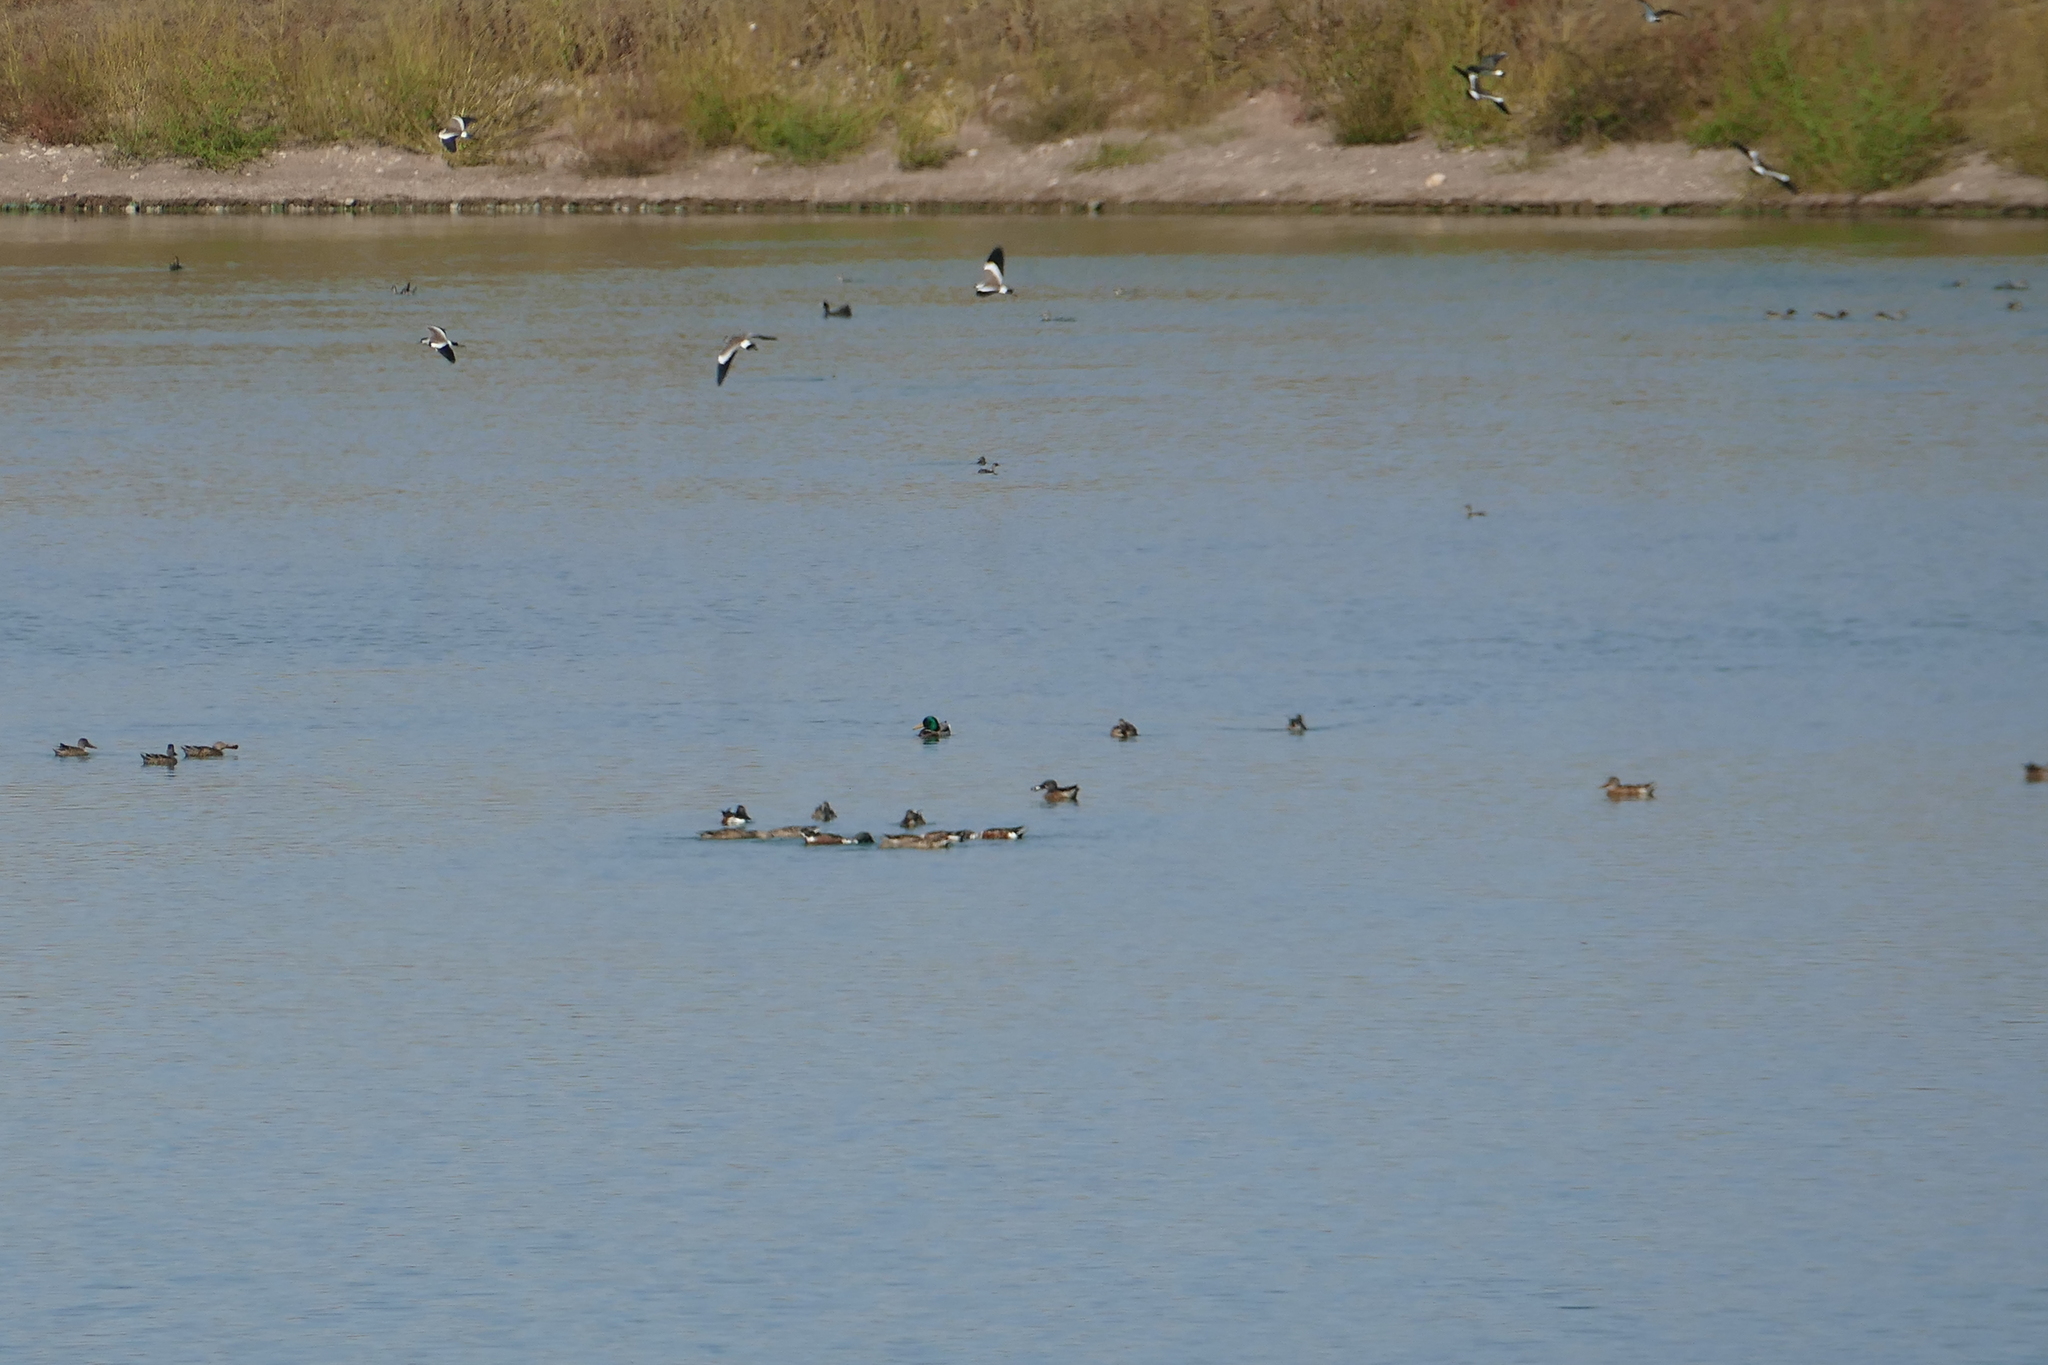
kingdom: Animalia
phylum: Chordata
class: Aves
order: Anseriformes
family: Anatidae
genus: Anas
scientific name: Anas platyrhynchos
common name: Mallard
